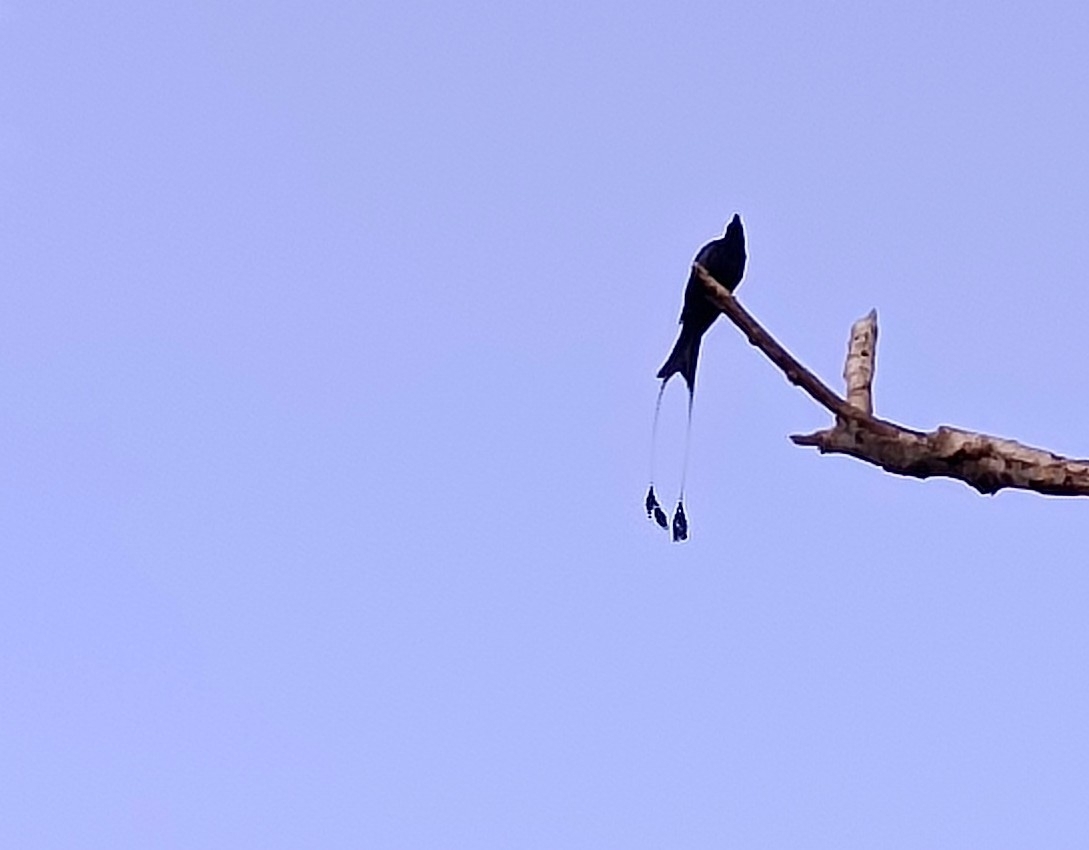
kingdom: Animalia
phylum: Chordata
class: Aves
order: Passeriformes
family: Dicruridae
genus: Dicrurus
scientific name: Dicrurus paradiseus
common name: Greater racket-tailed drongo
